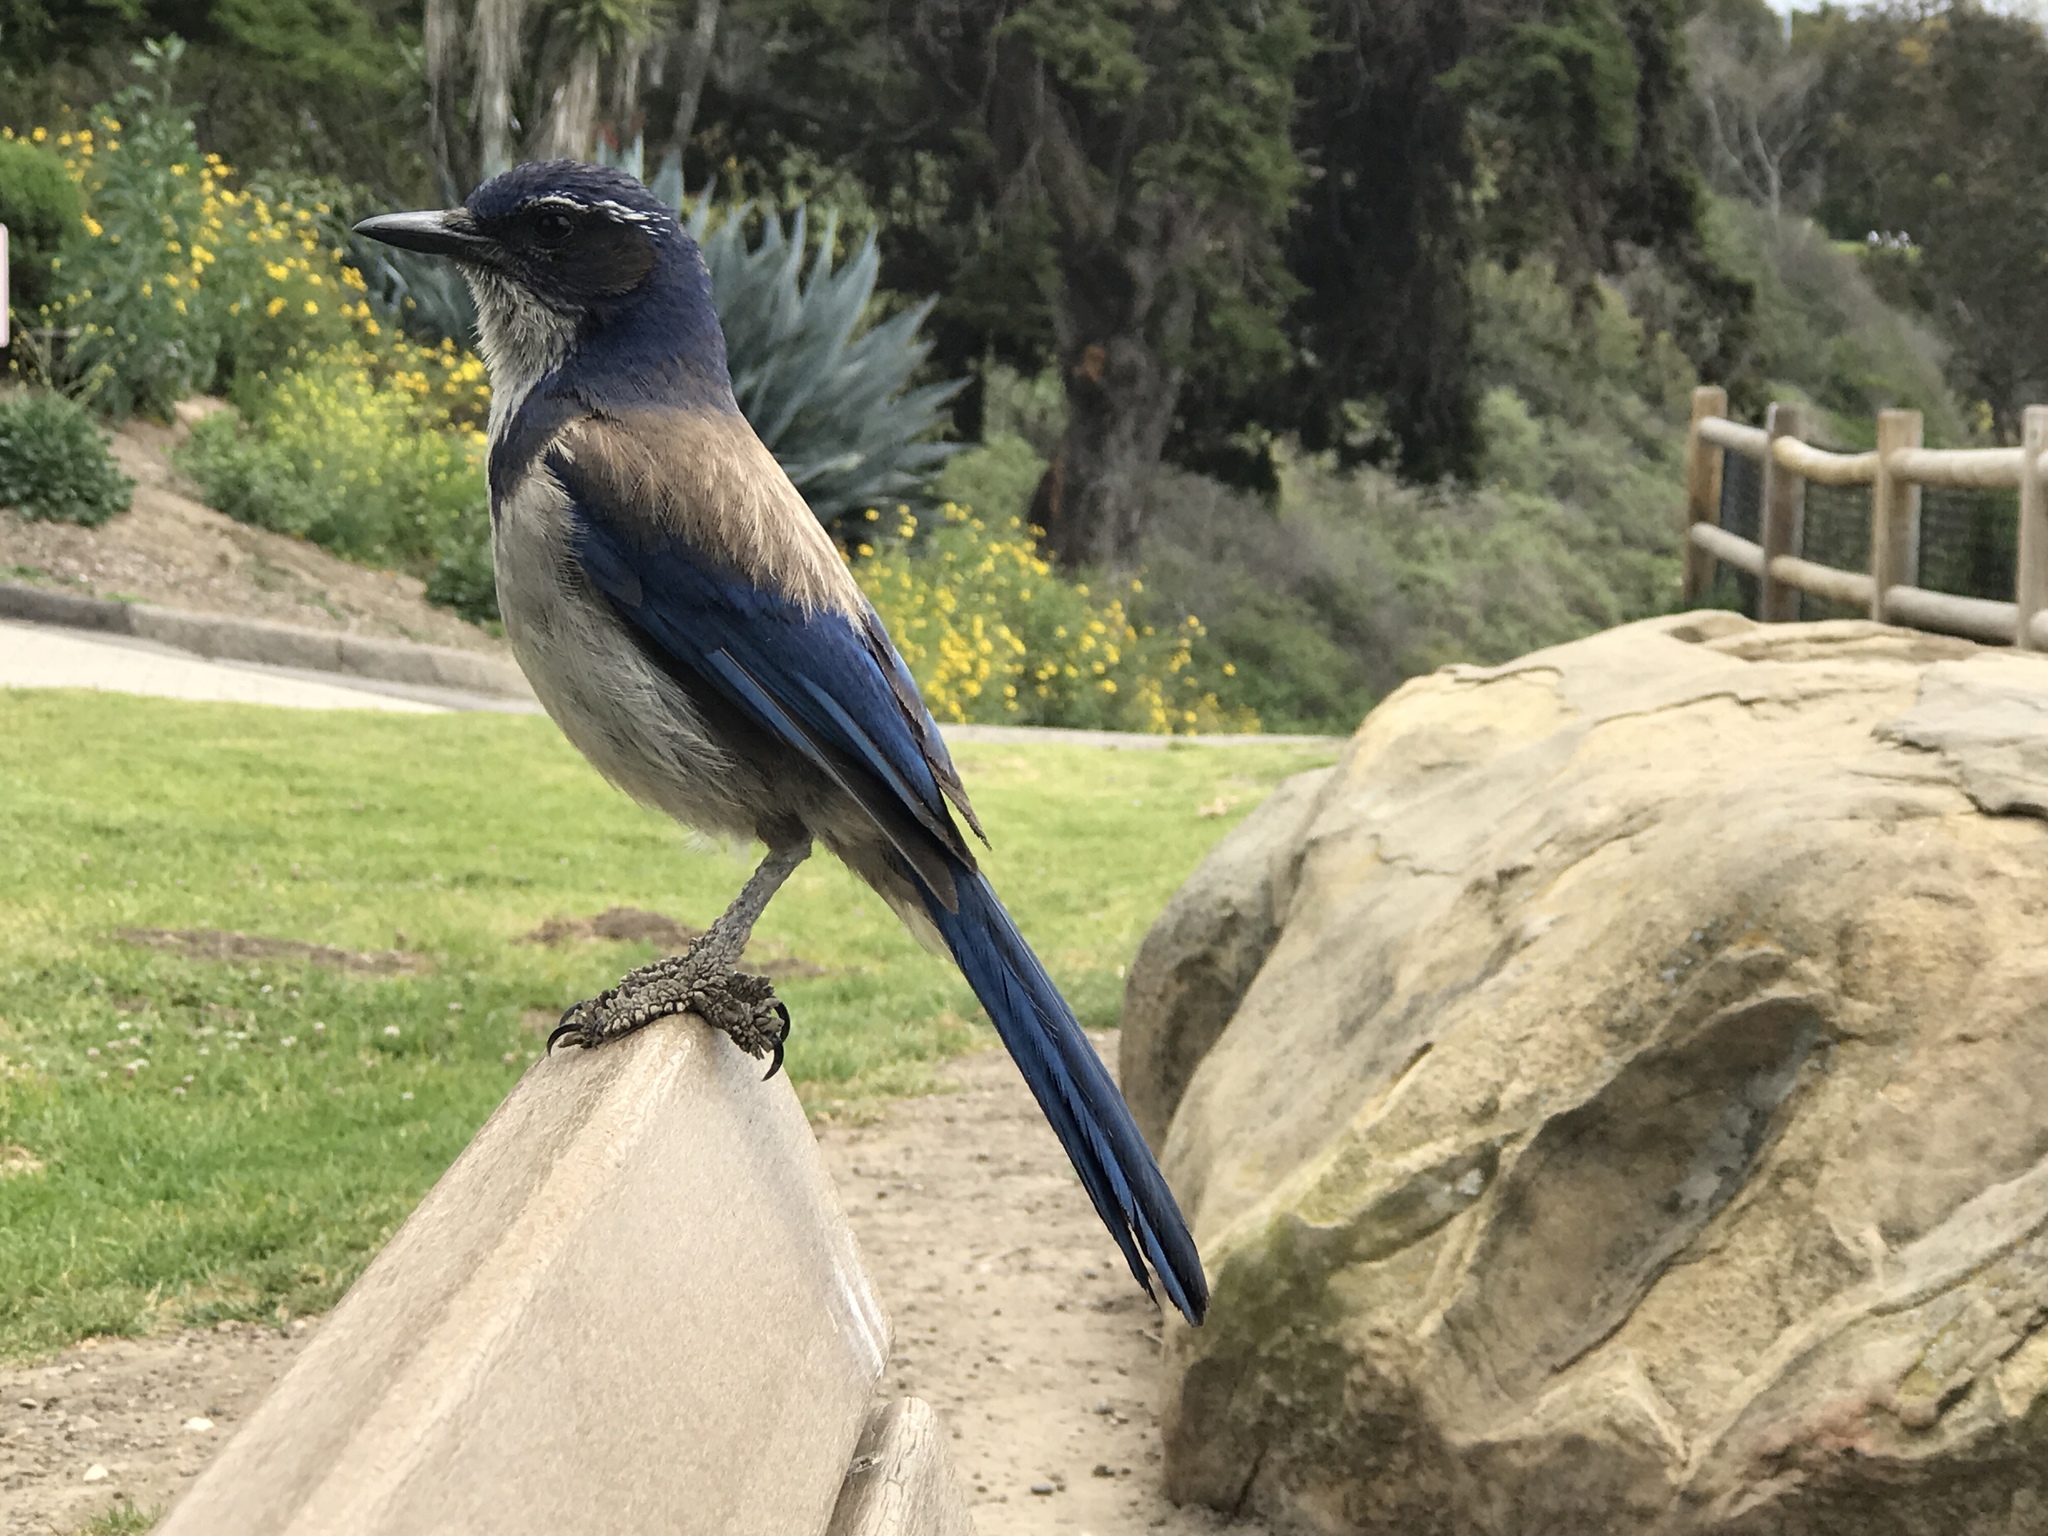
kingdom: Animalia
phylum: Chordata
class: Aves
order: Passeriformes
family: Corvidae
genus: Aphelocoma
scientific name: Aphelocoma californica
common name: California scrub-jay
